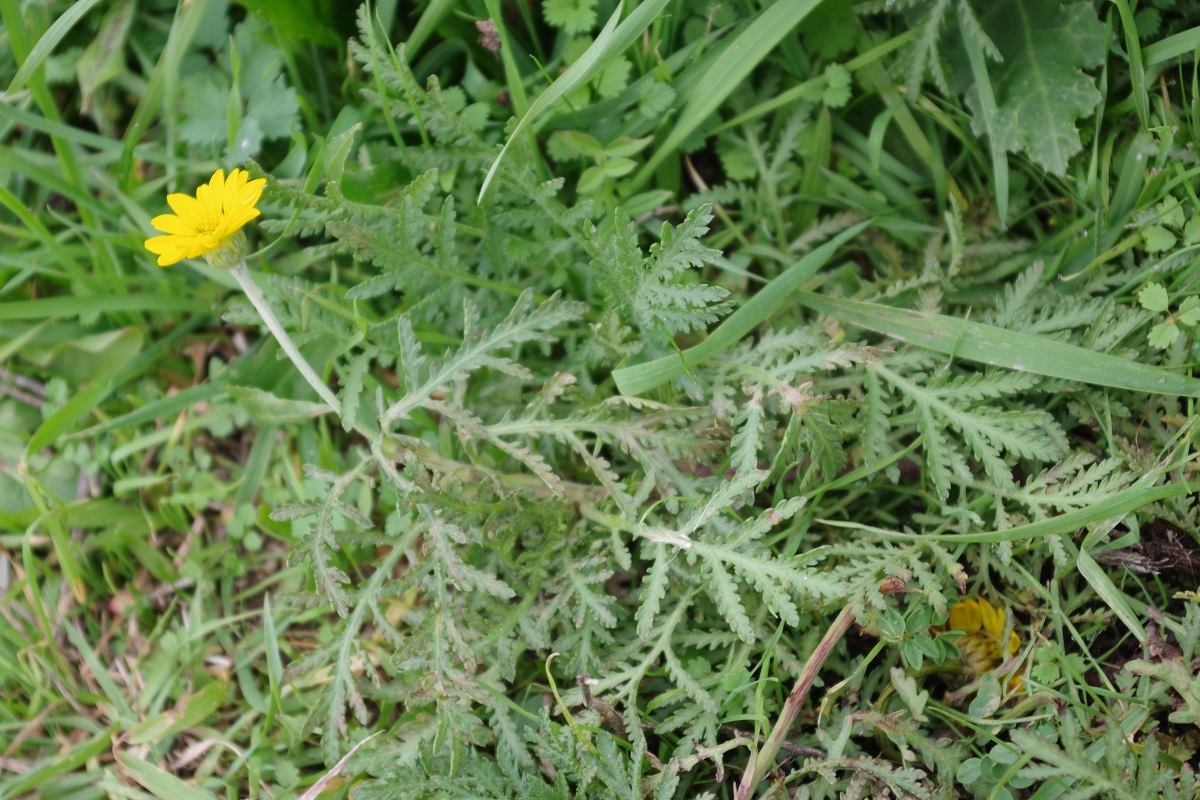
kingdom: Plantae
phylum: Tracheophyta
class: Magnoliopsida
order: Asterales
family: Asteraceae
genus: Cota
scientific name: Cota tinctoria
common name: Golden chamomile
